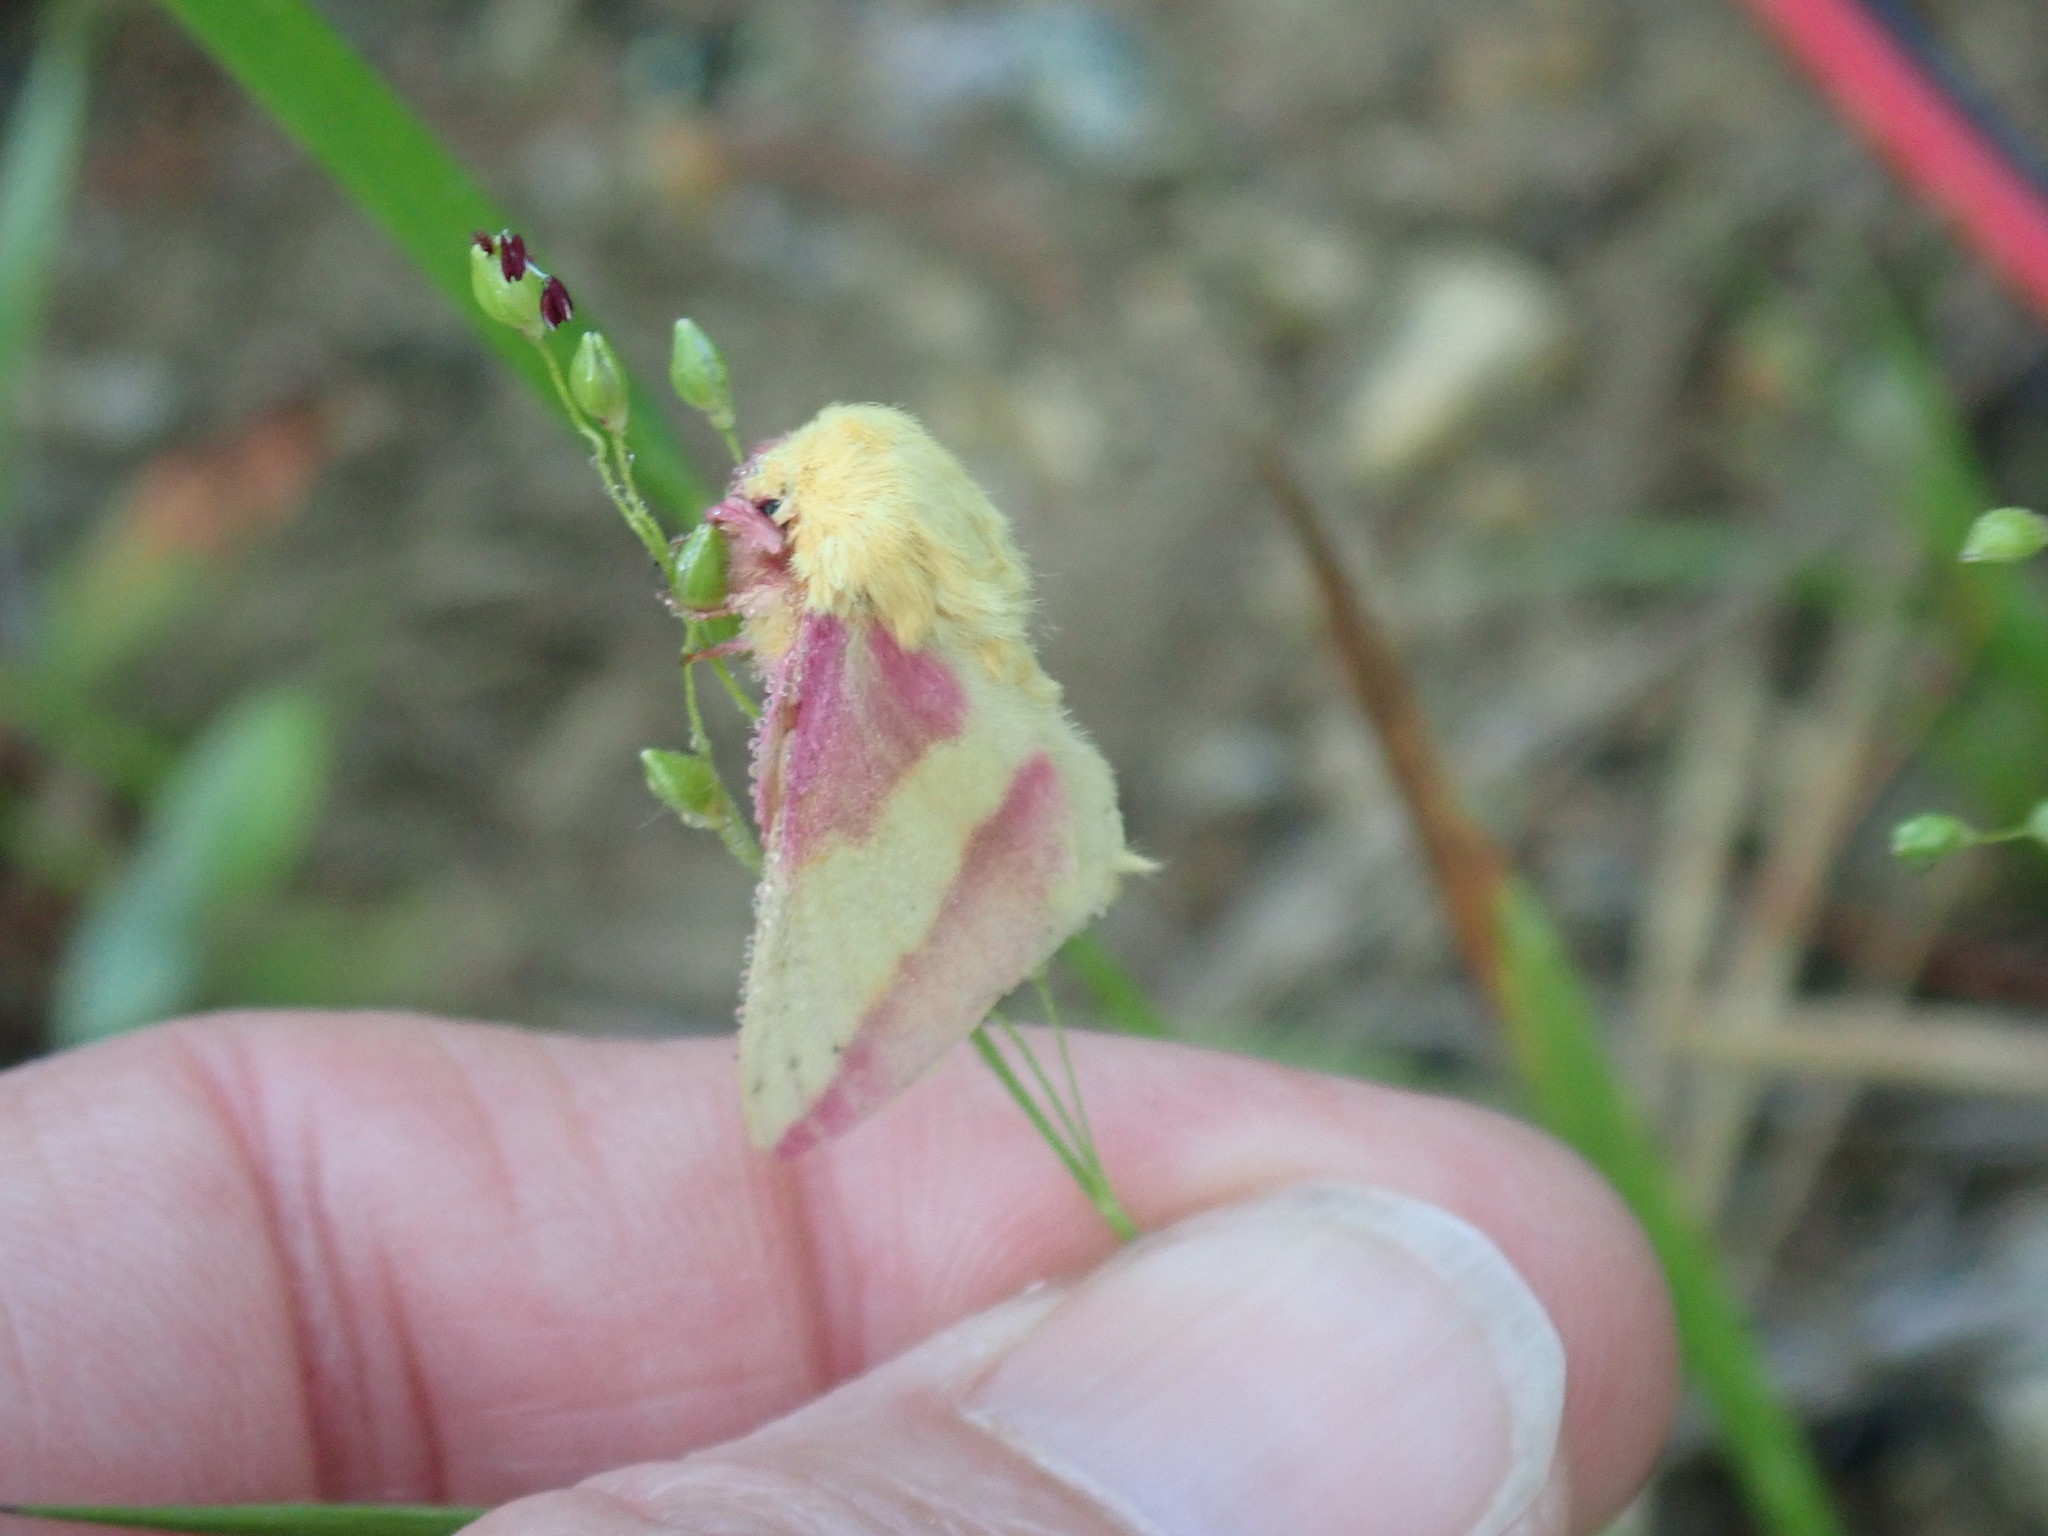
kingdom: Animalia
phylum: Arthropoda
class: Insecta
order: Lepidoptera
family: Saturniidae
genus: Dryocampa
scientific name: Dryocampa rubicunda
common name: Rosy maple moth
